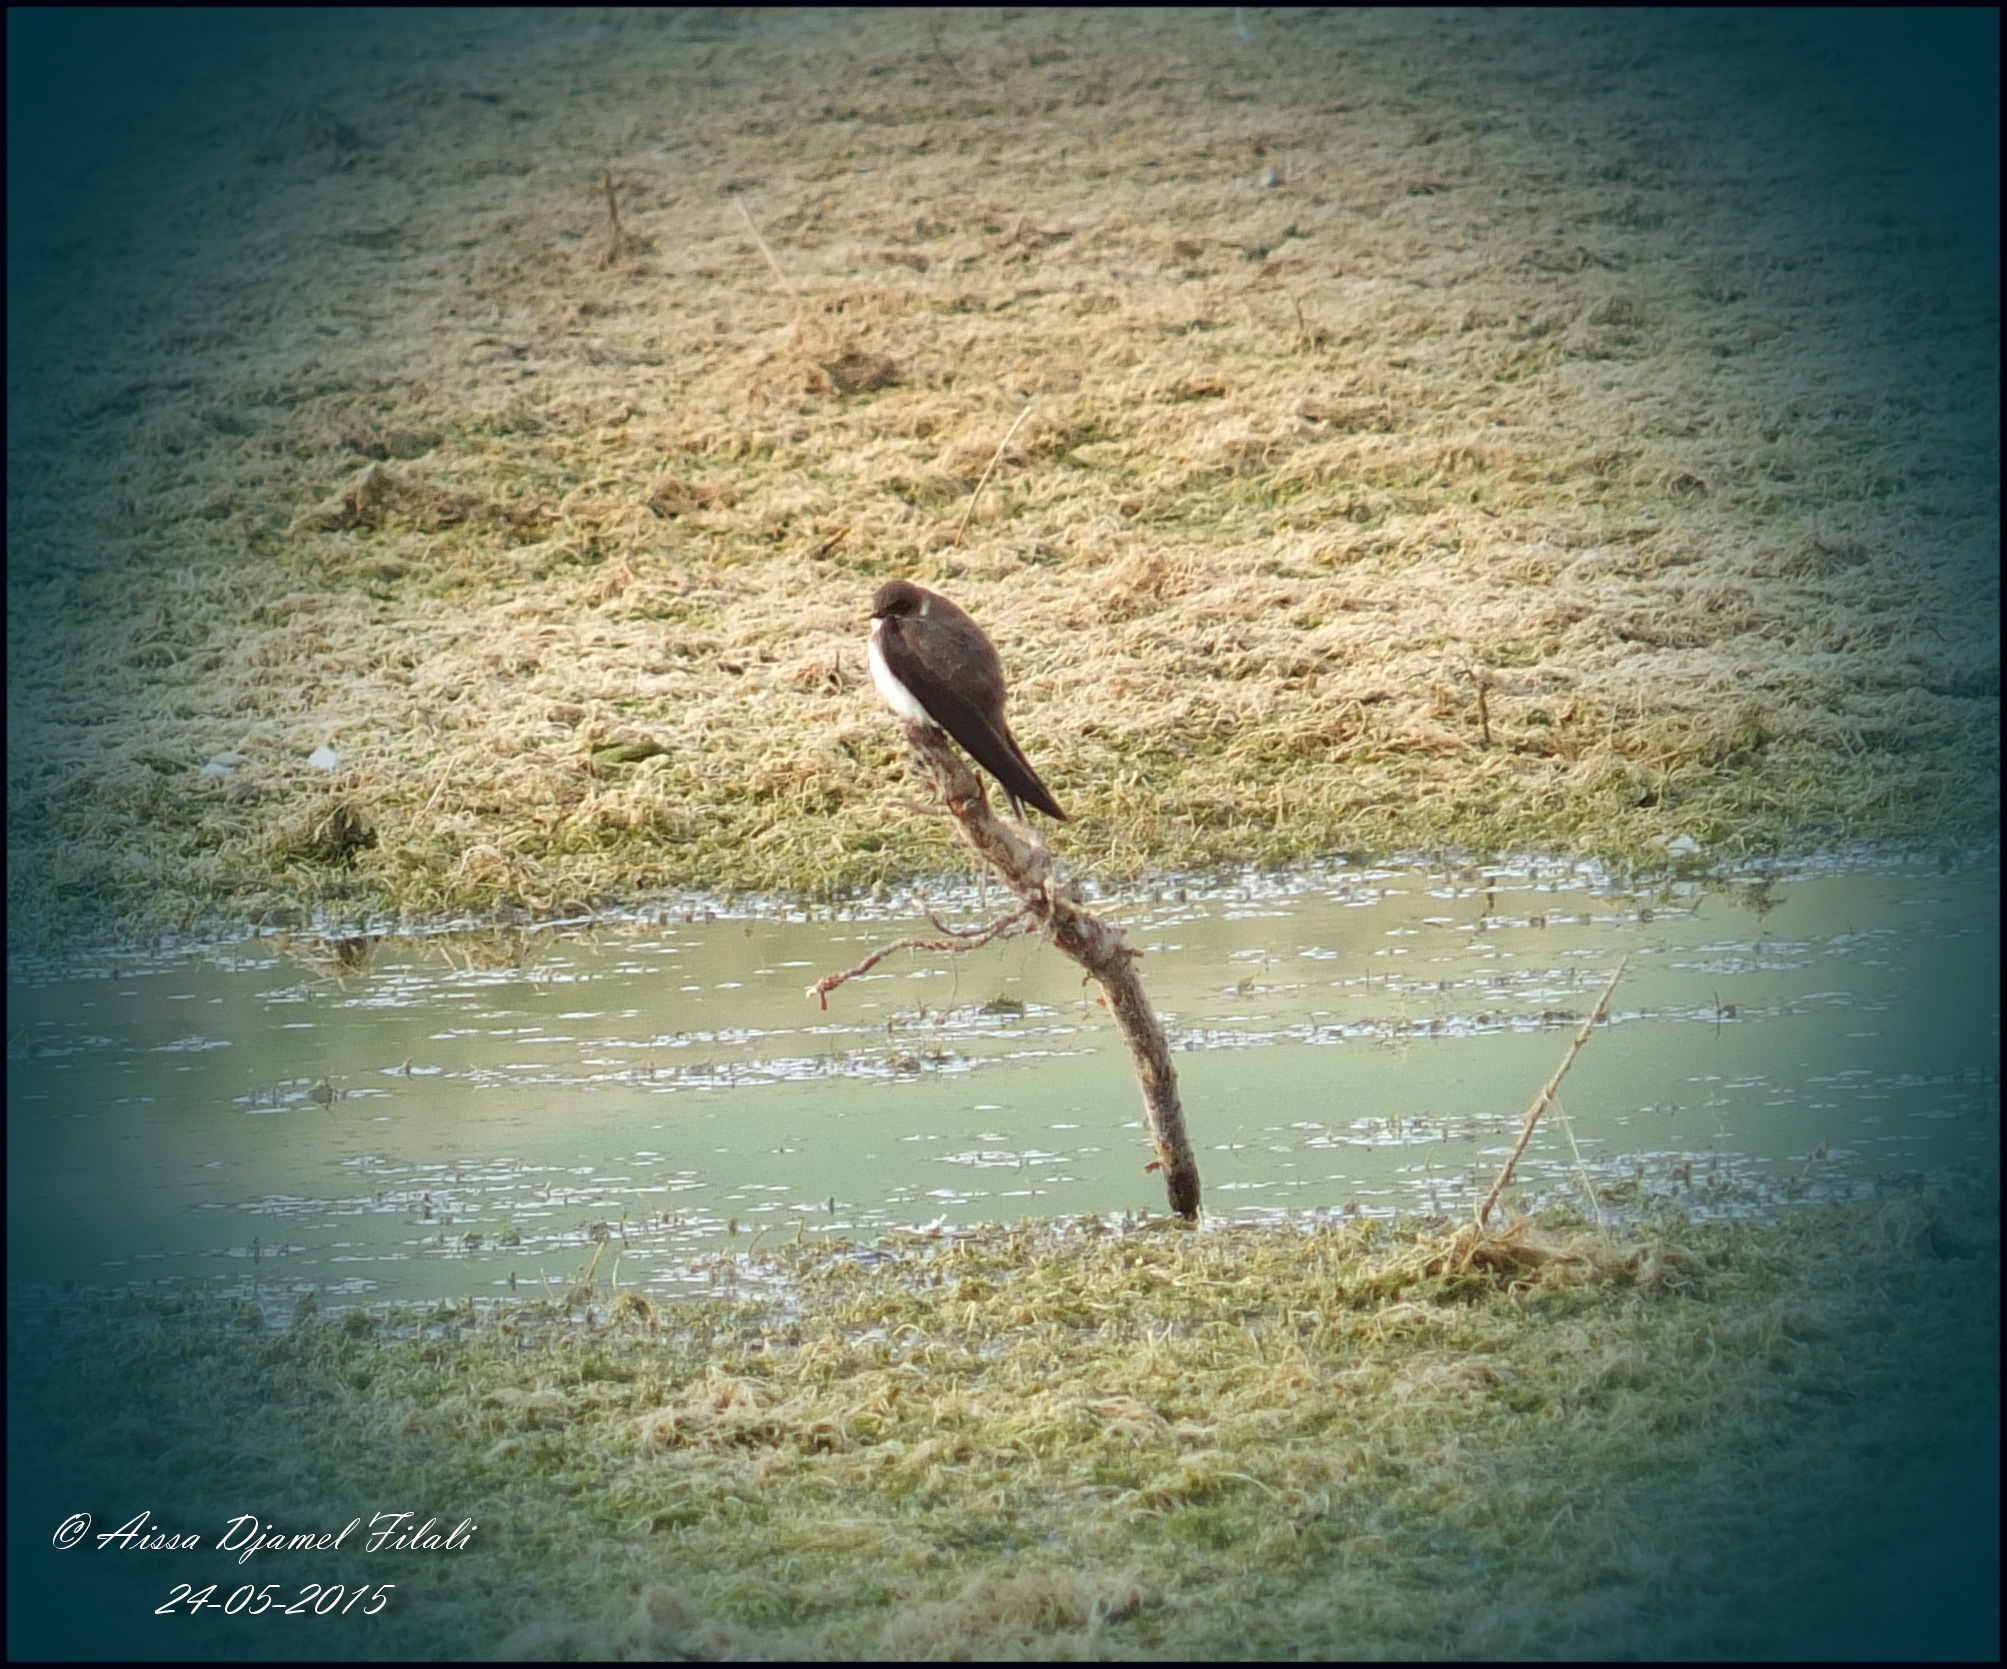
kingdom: Animalia
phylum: Chordata
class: Aves
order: Passeriformes
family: Hirundinidae
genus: Riparia
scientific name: Riparia riparia
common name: Sand martin
